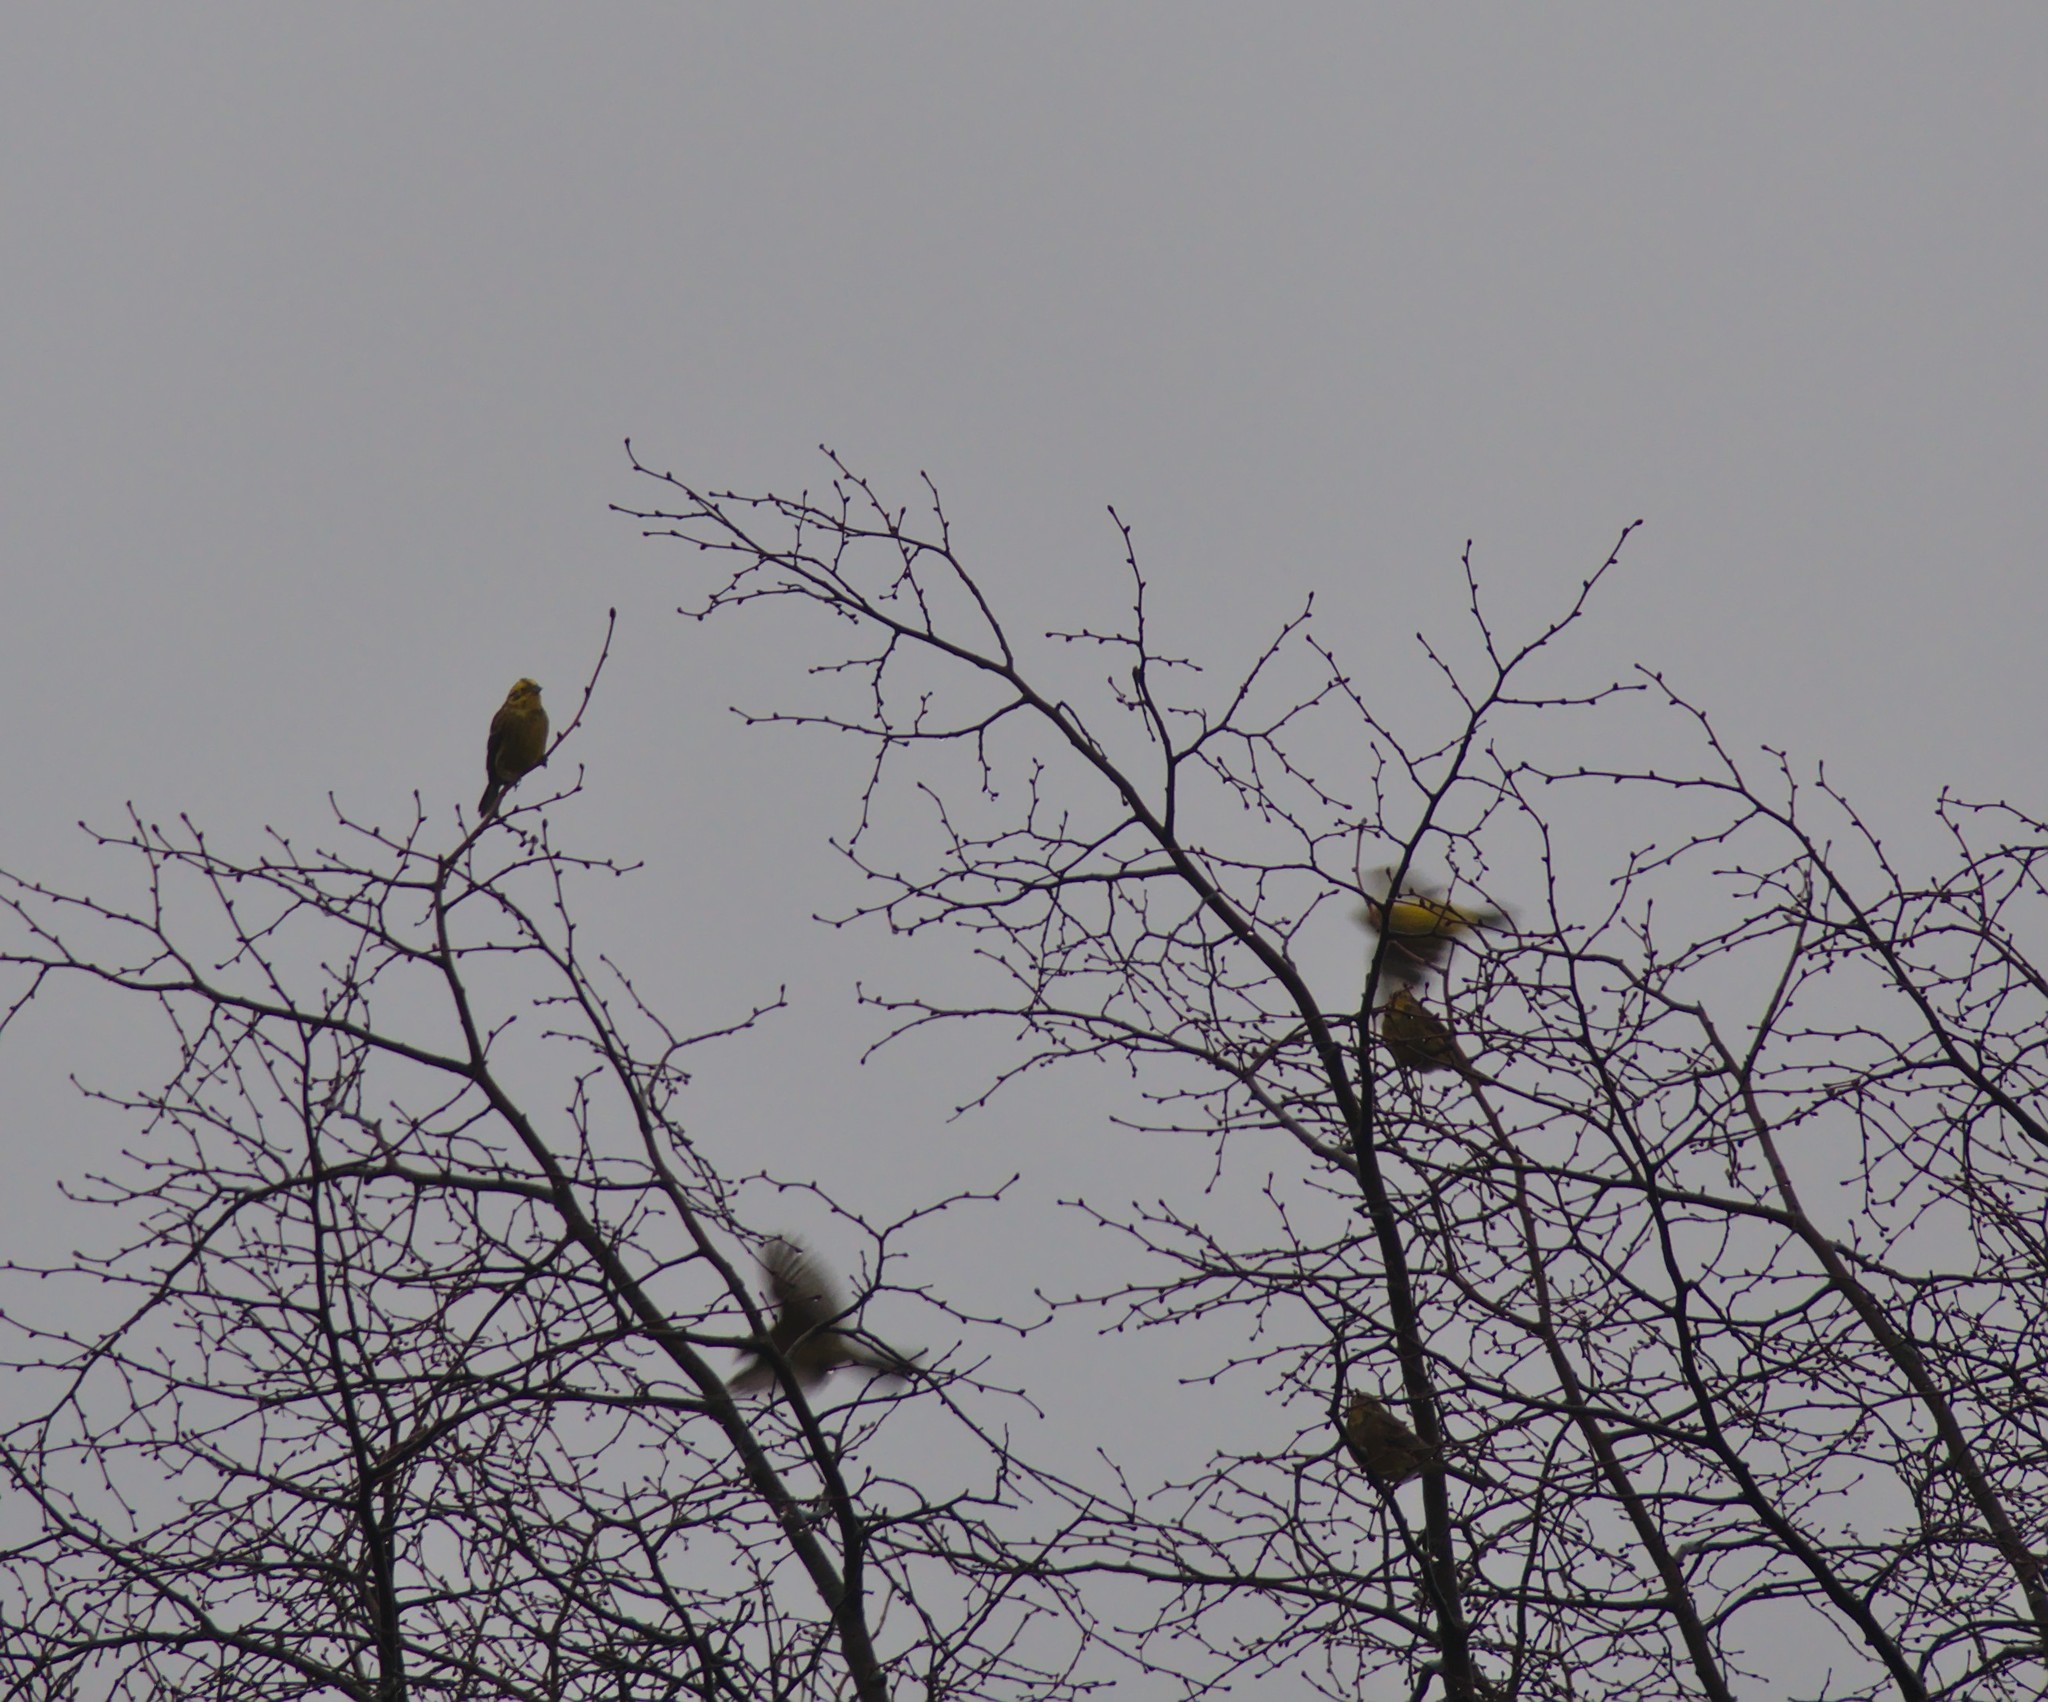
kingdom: Animalia
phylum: Chordata
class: Aves
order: Passeriformes
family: Emberizidae
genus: Emberiza
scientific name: Emberiza citrinella
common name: Yellowhammer
